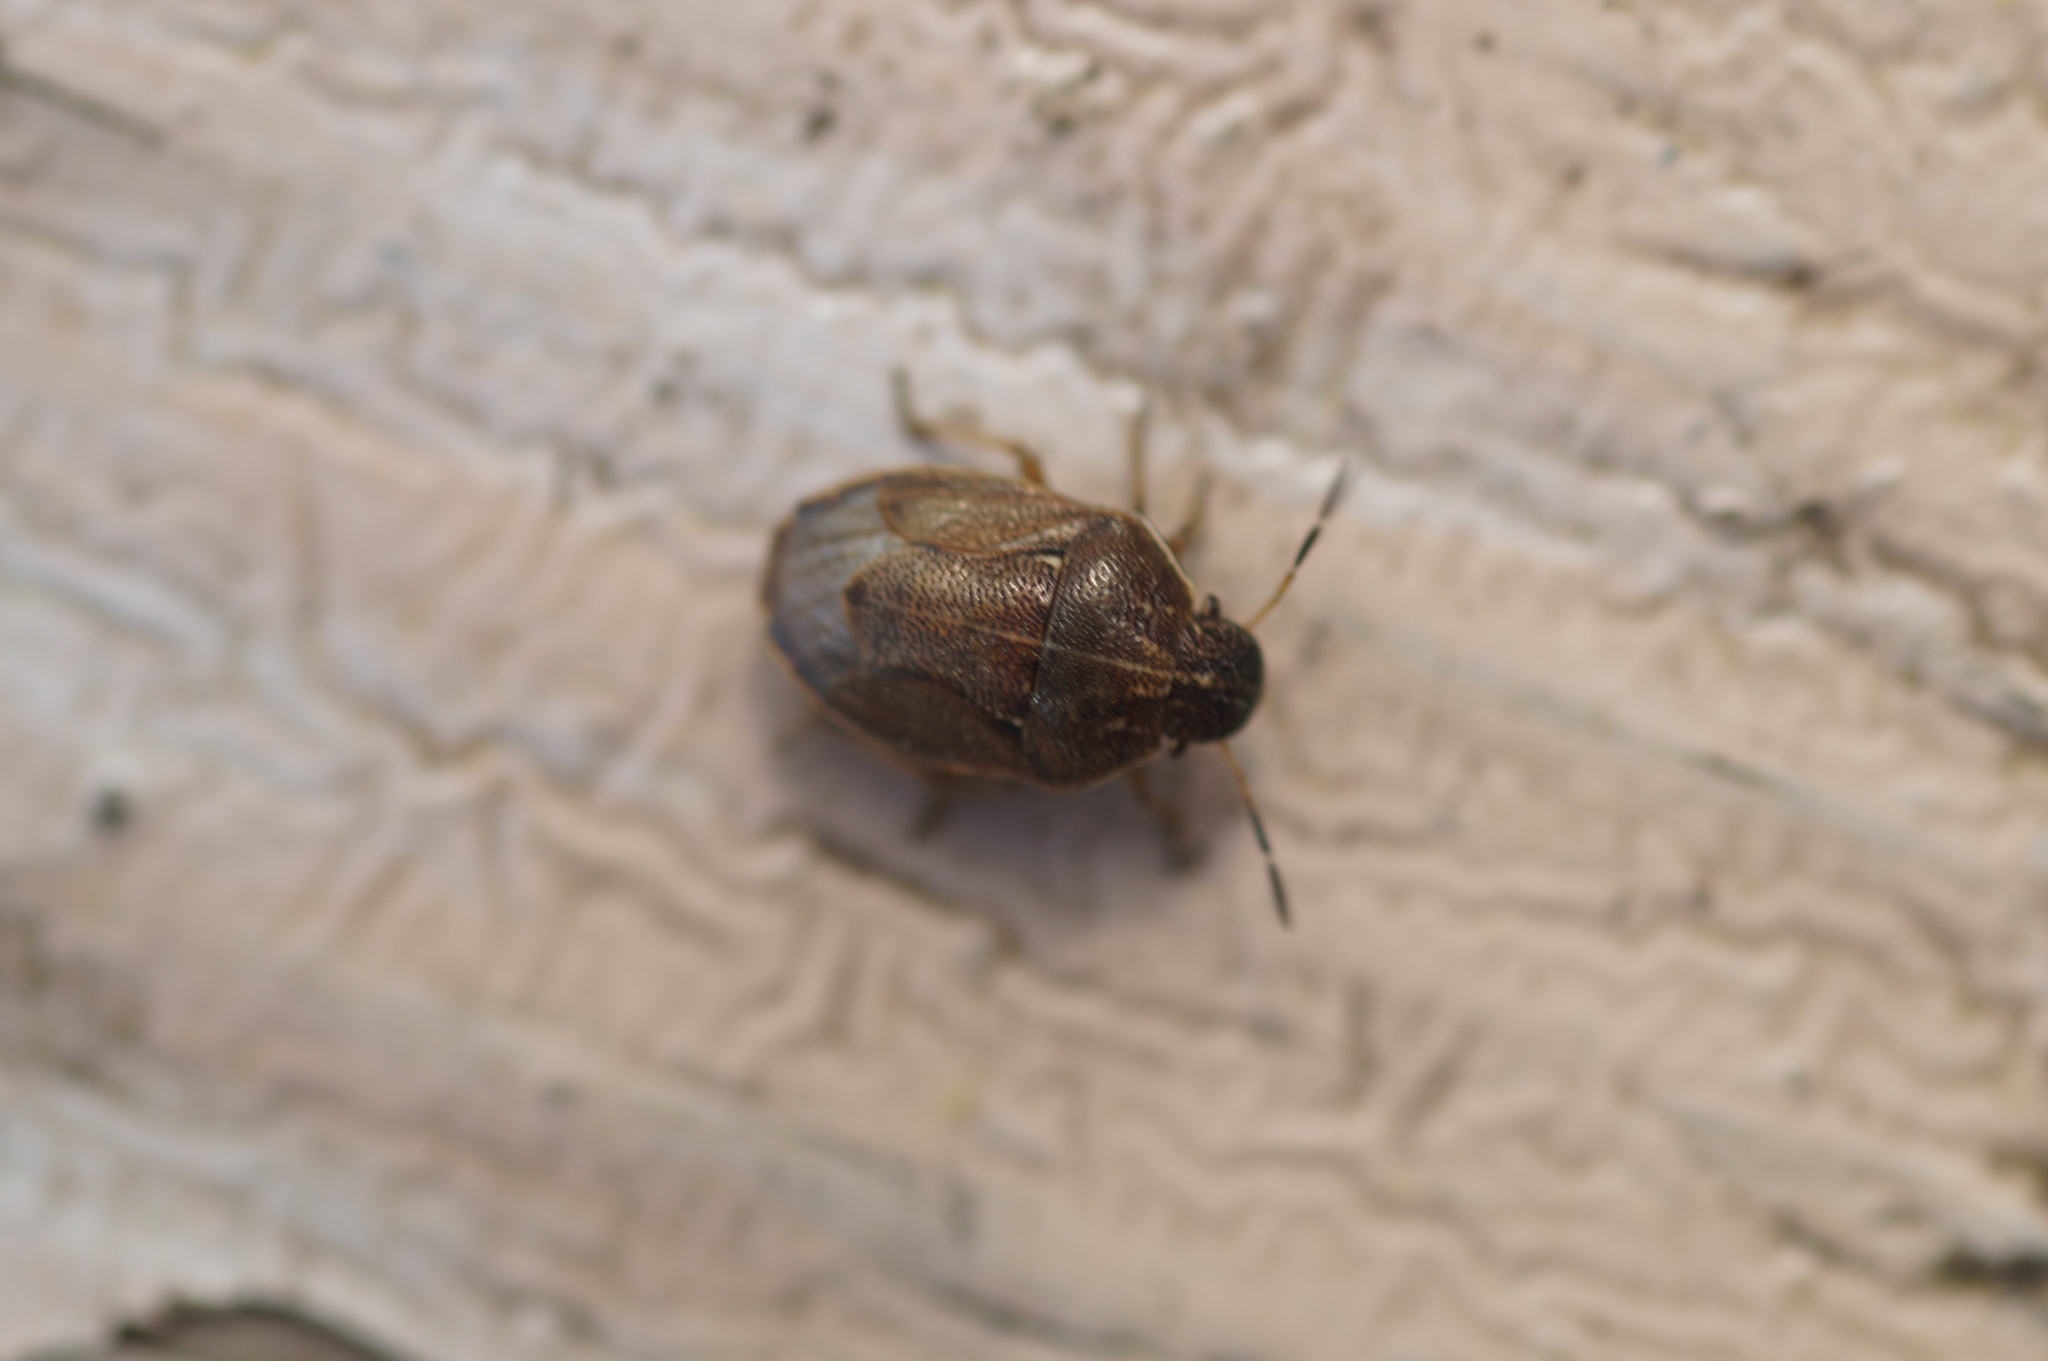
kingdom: Animalia
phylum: Arthropoda
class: Insecta
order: Hemiptera
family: Pentatomidae
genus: Neottiglossa
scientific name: Neottiglossa pusilla
